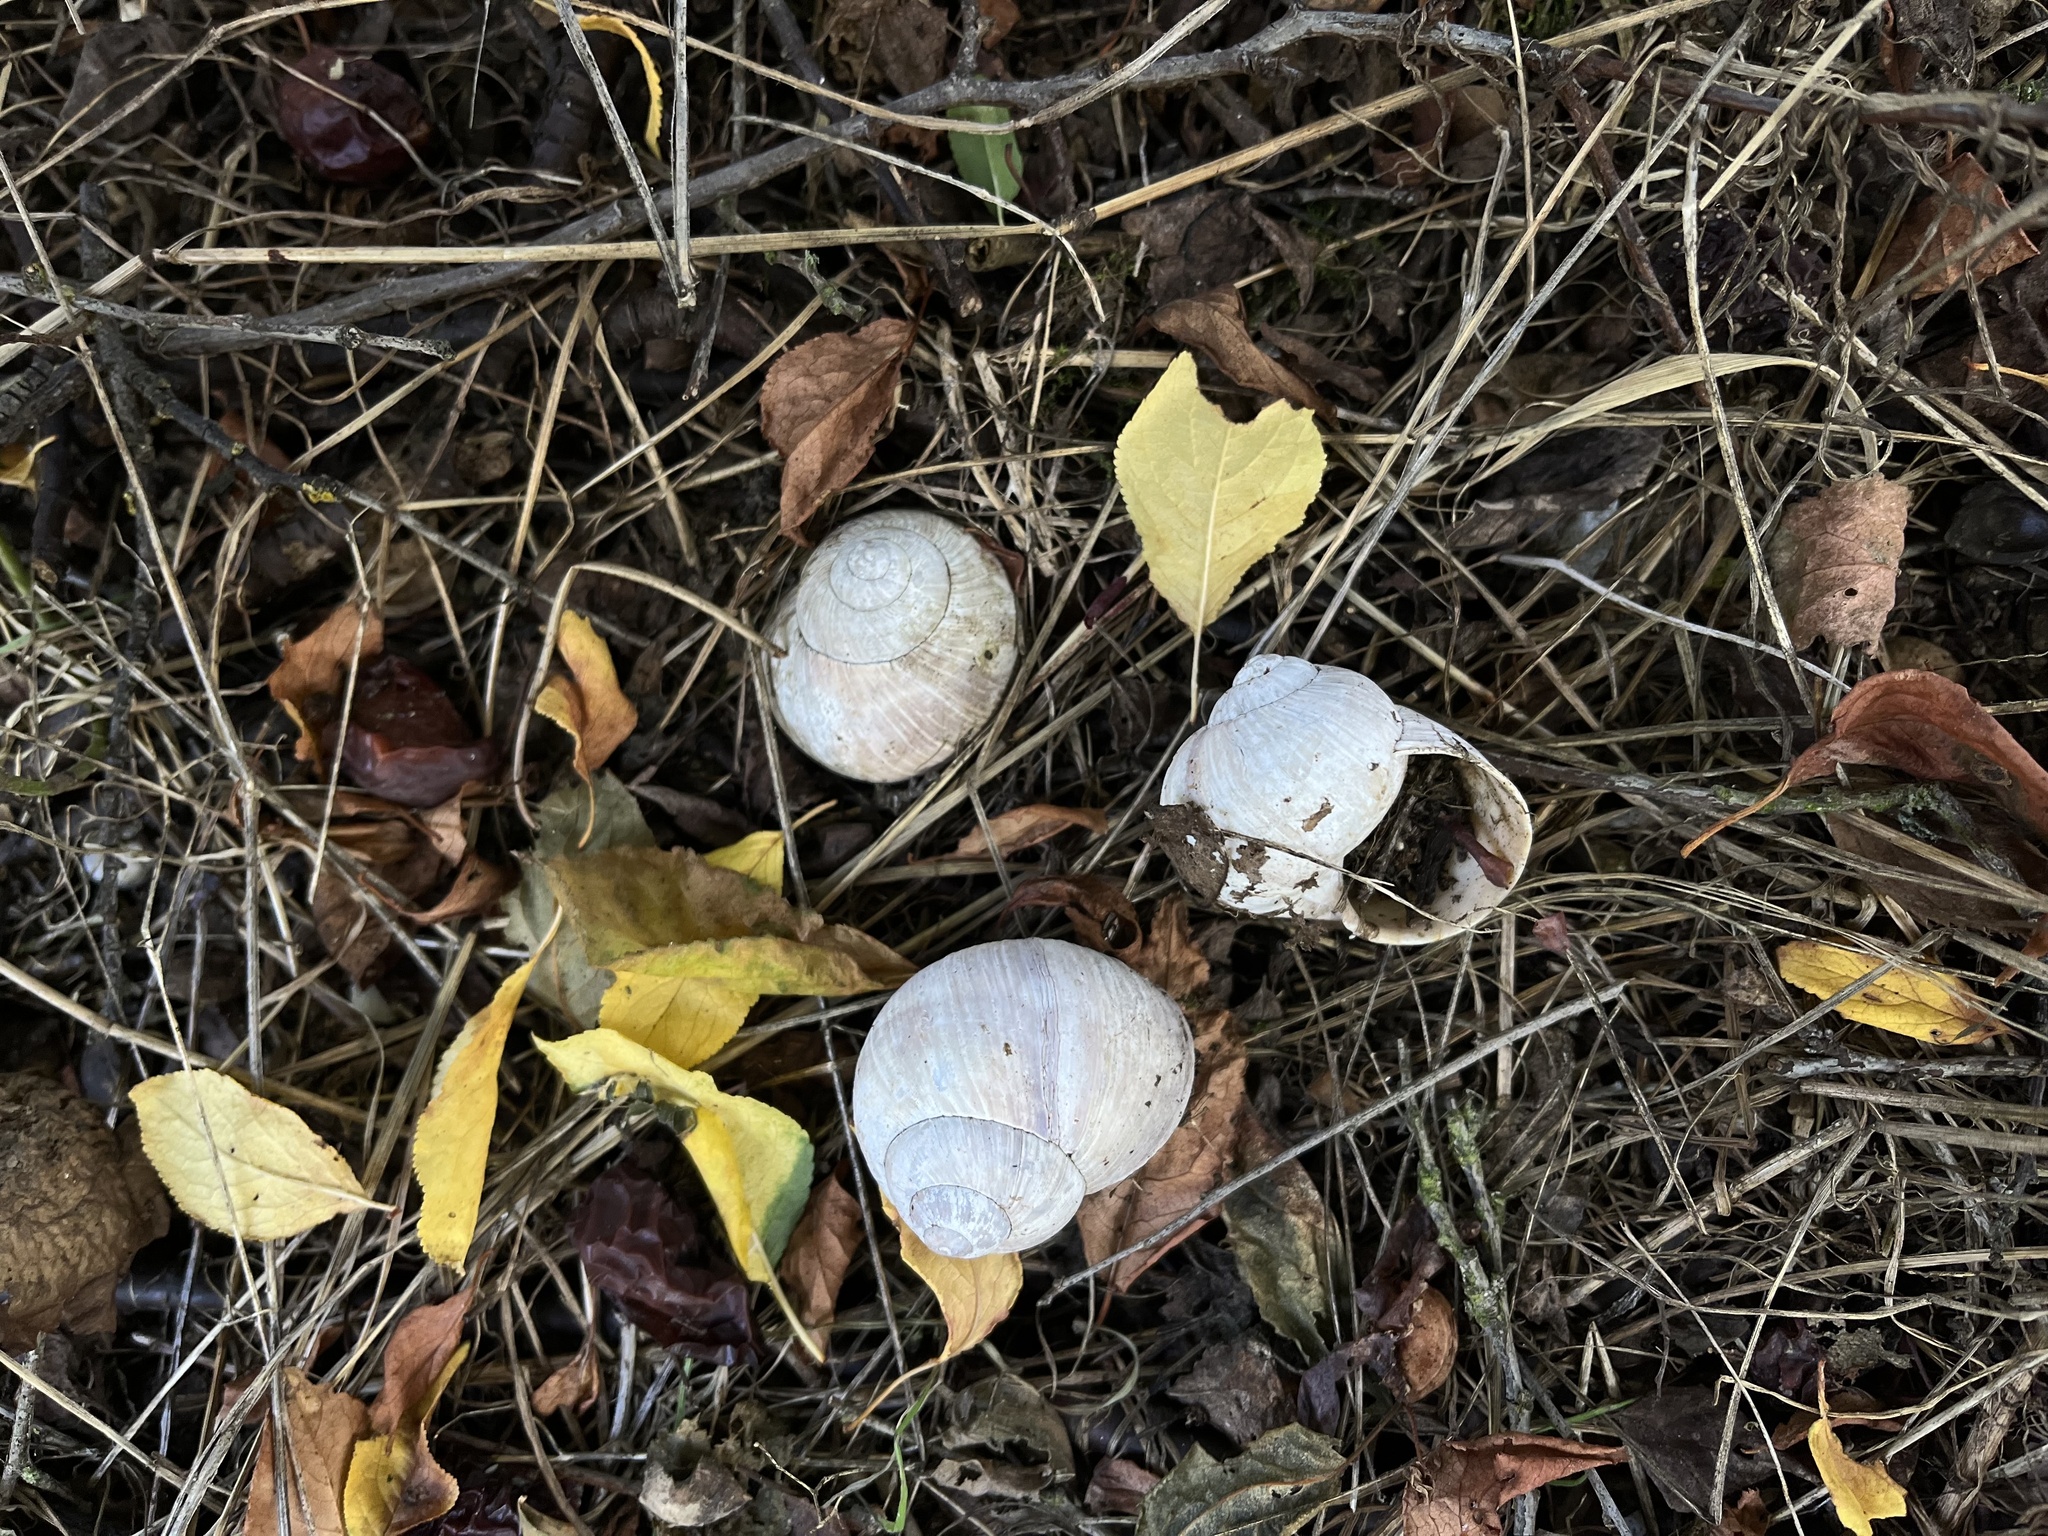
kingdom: Animalia
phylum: Mollusca
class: Gastropoda
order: Stylommatophora
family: Helicidae
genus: Helix
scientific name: Helix pomatia
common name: Roman snail
